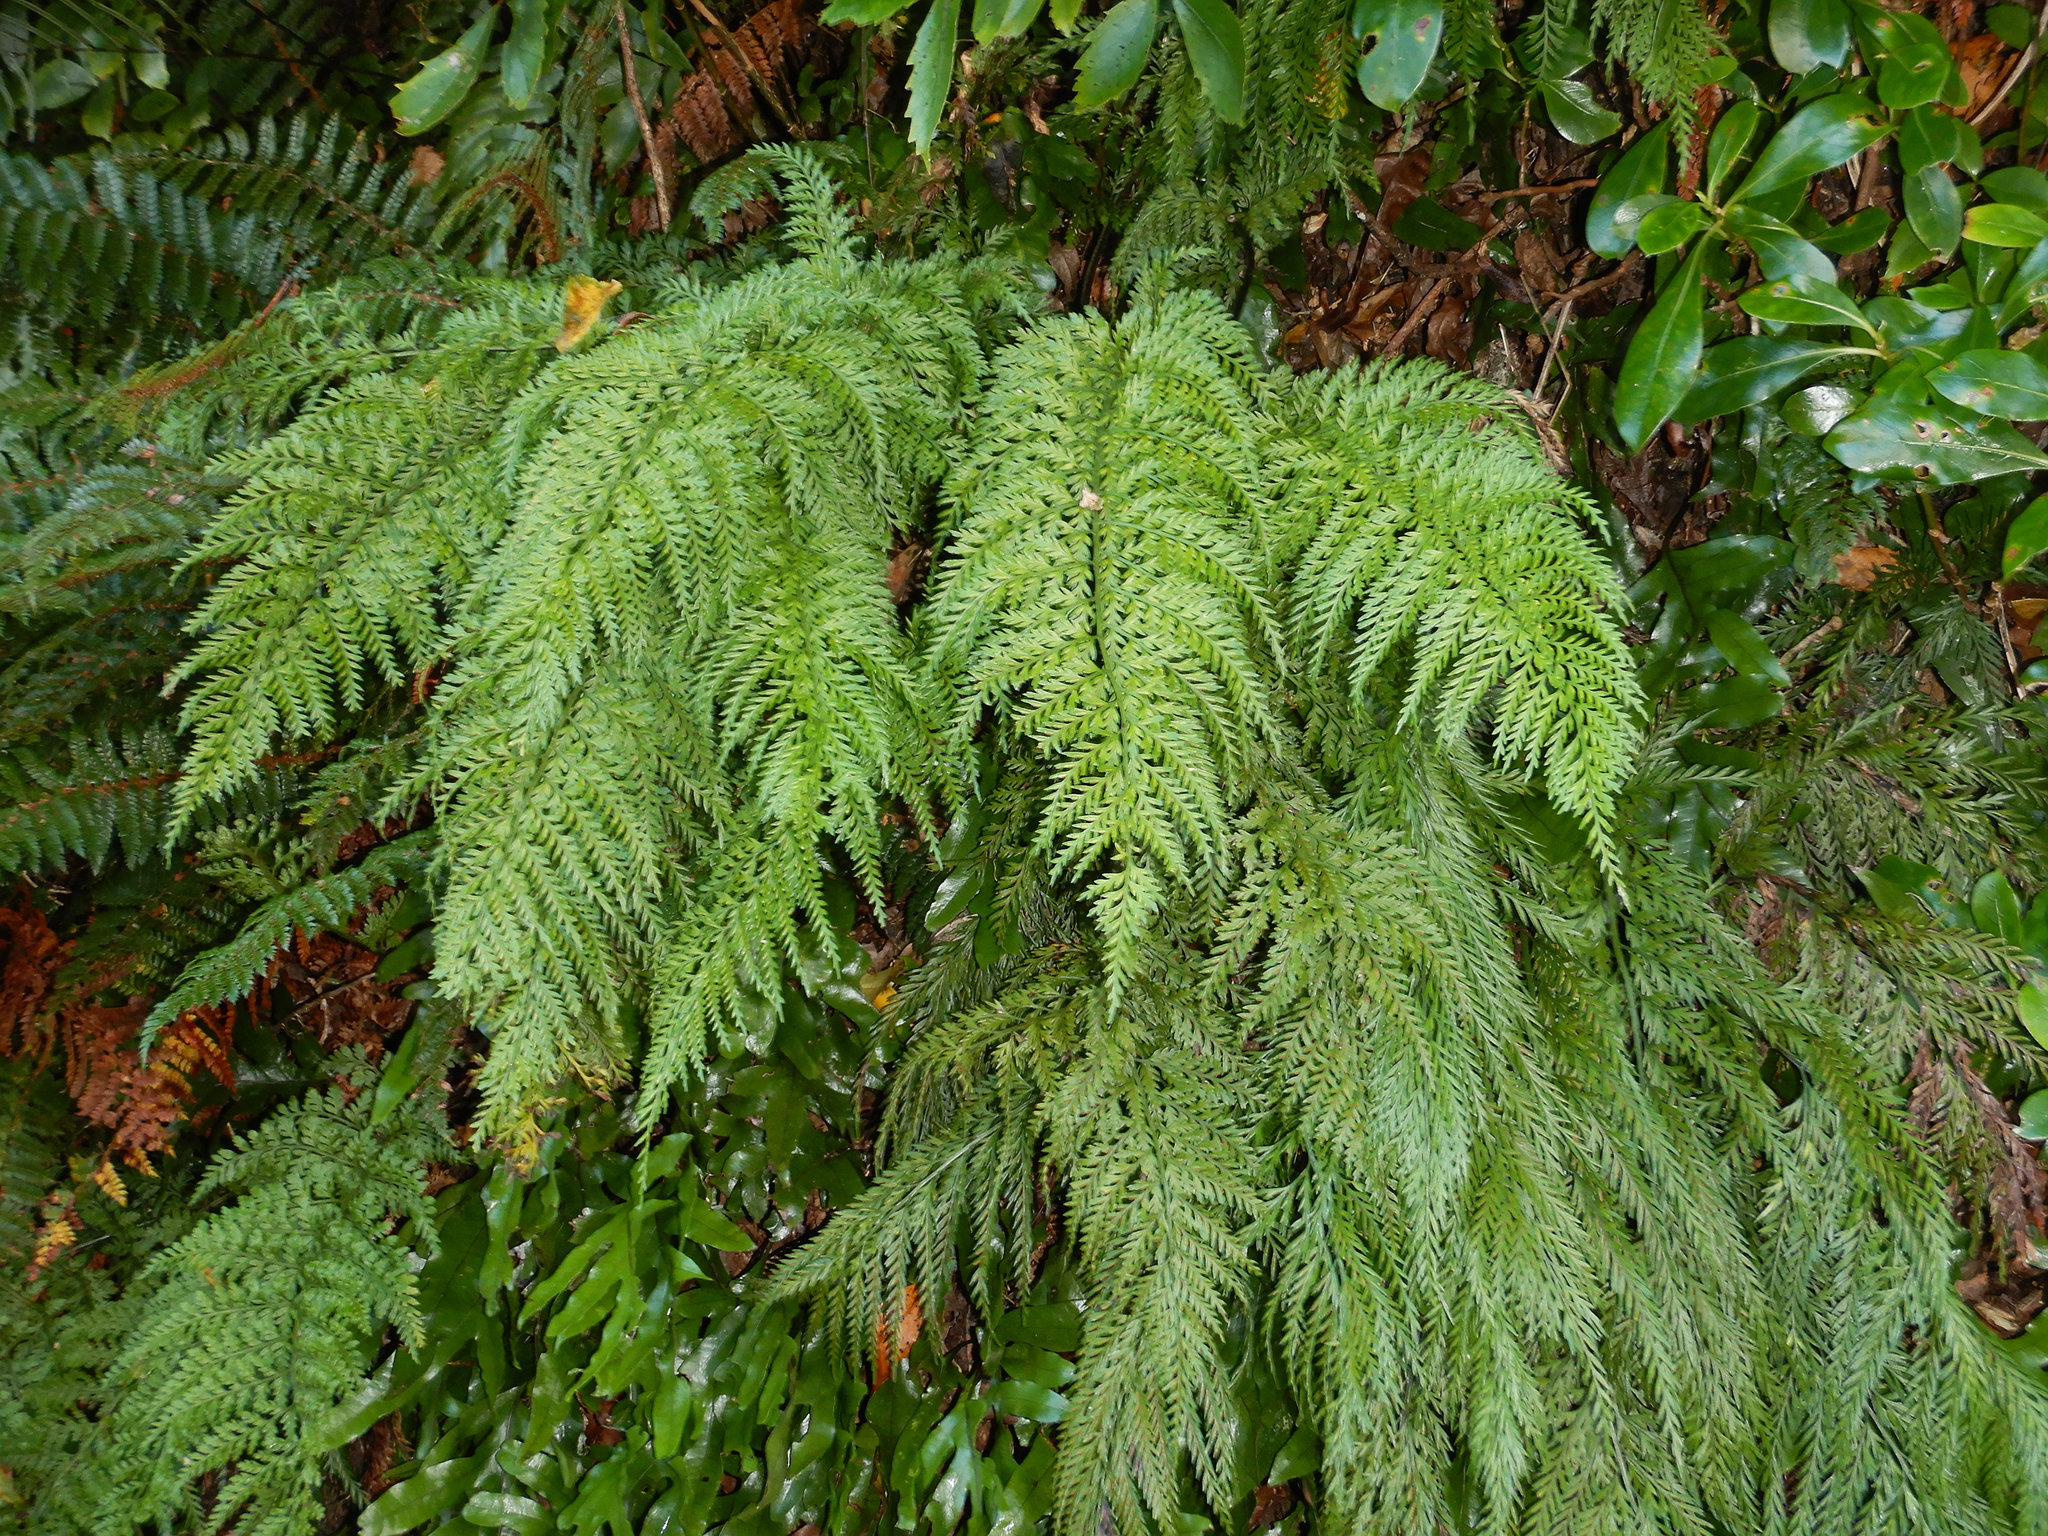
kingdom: Plantae
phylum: Tracheophyta
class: Polypodiopsida
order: Polypodiales
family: Aspleniaceae
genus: Asplenium
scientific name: Asplenium
